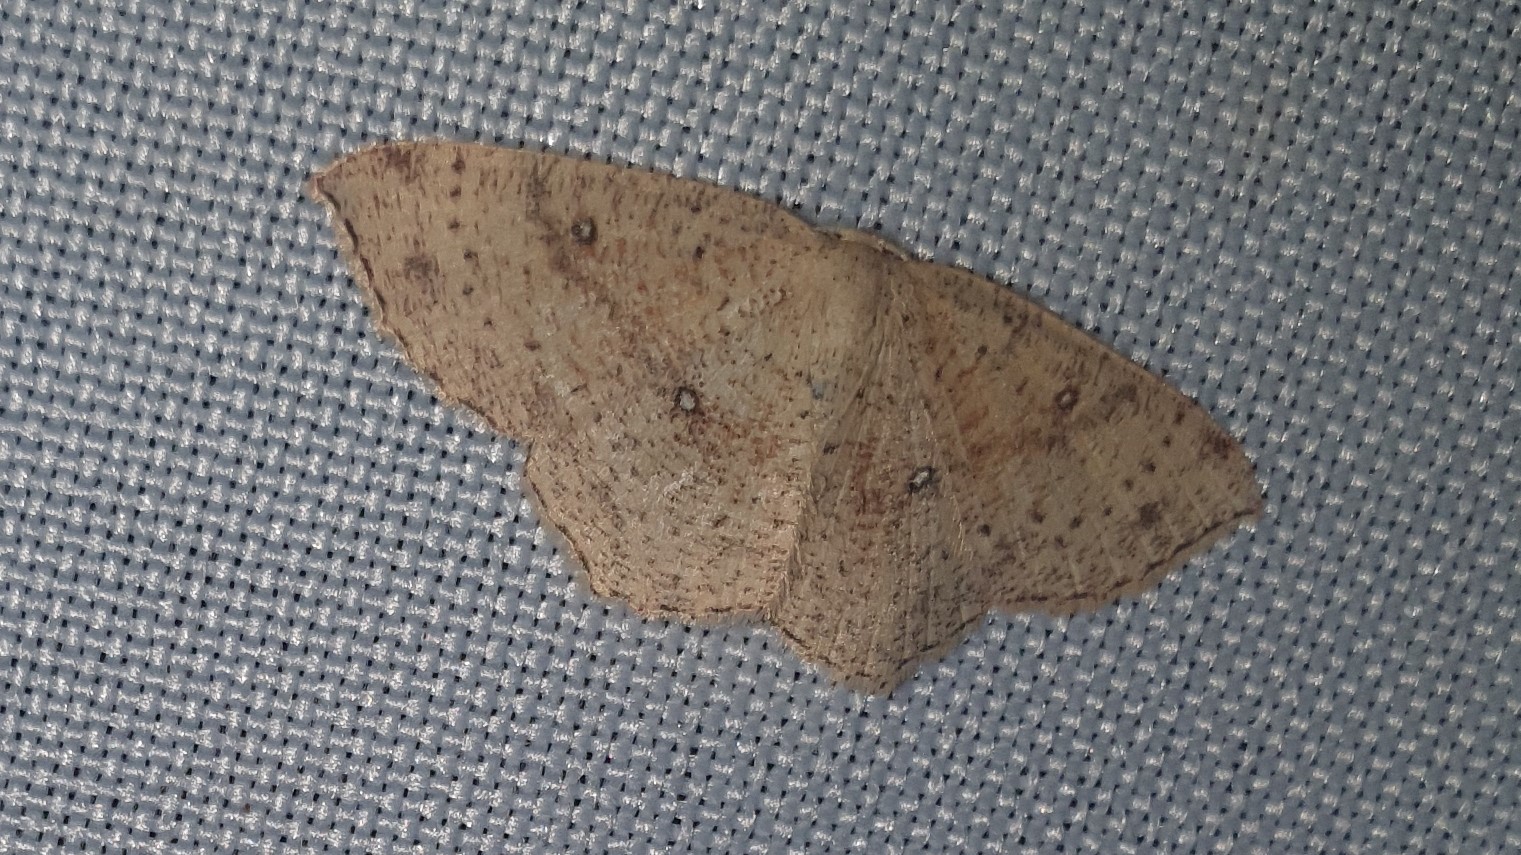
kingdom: Animalia
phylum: Arthropoda
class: Insecta
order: Lepidoptera
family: Geometridae
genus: Cyclophora
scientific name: Cyclophora porata
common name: False mocha
